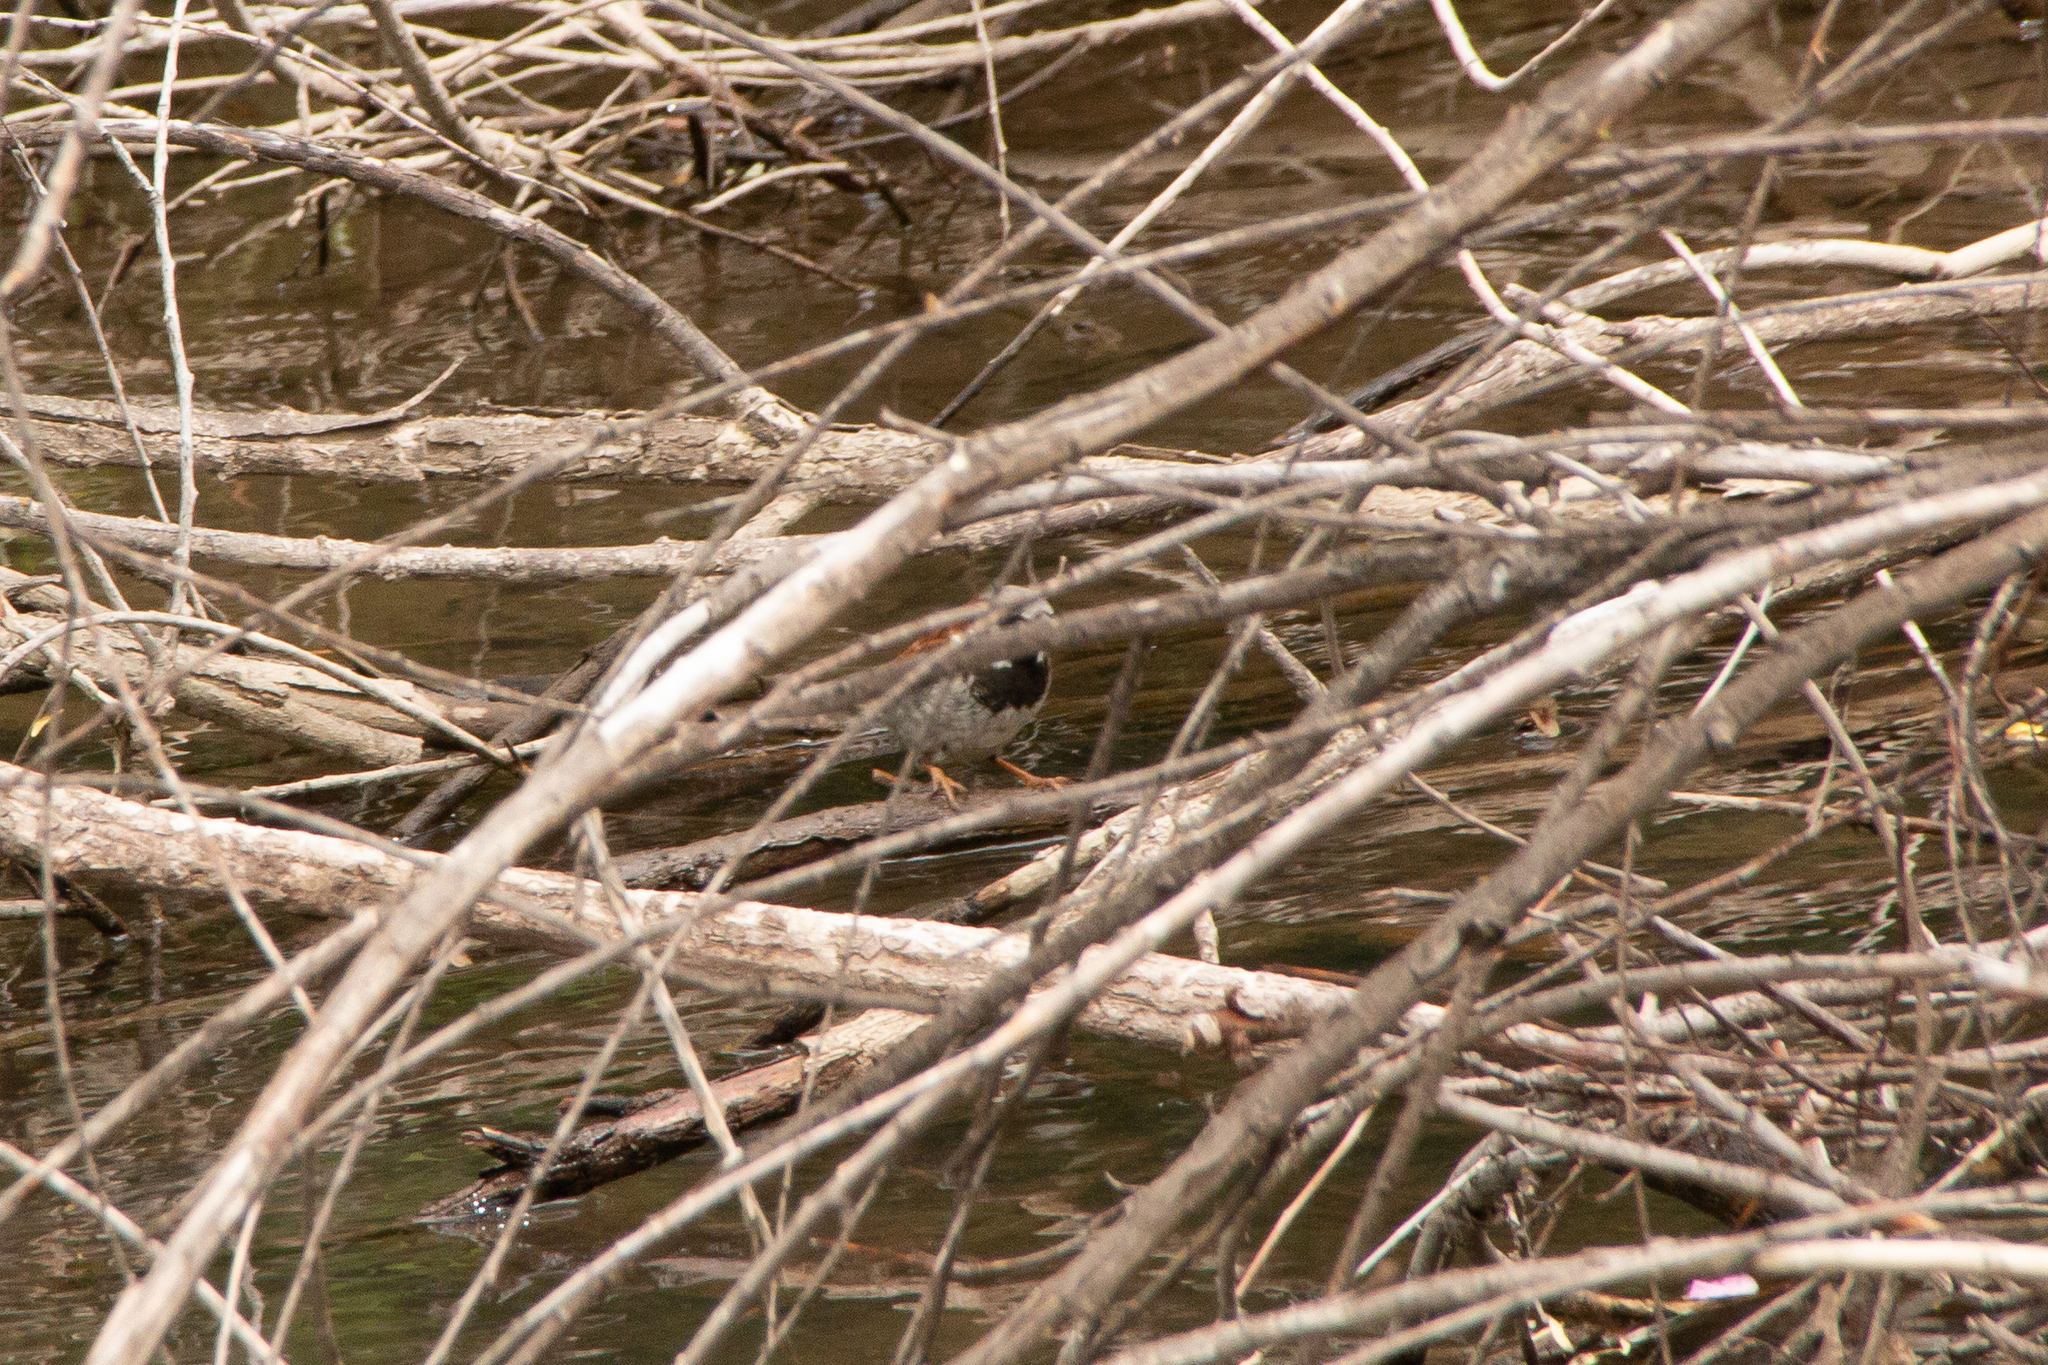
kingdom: Animalia
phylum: Chordata
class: Aves
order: Passeriformes
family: Passeridae
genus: Passer
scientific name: Passer domesticus
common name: House sparrow
